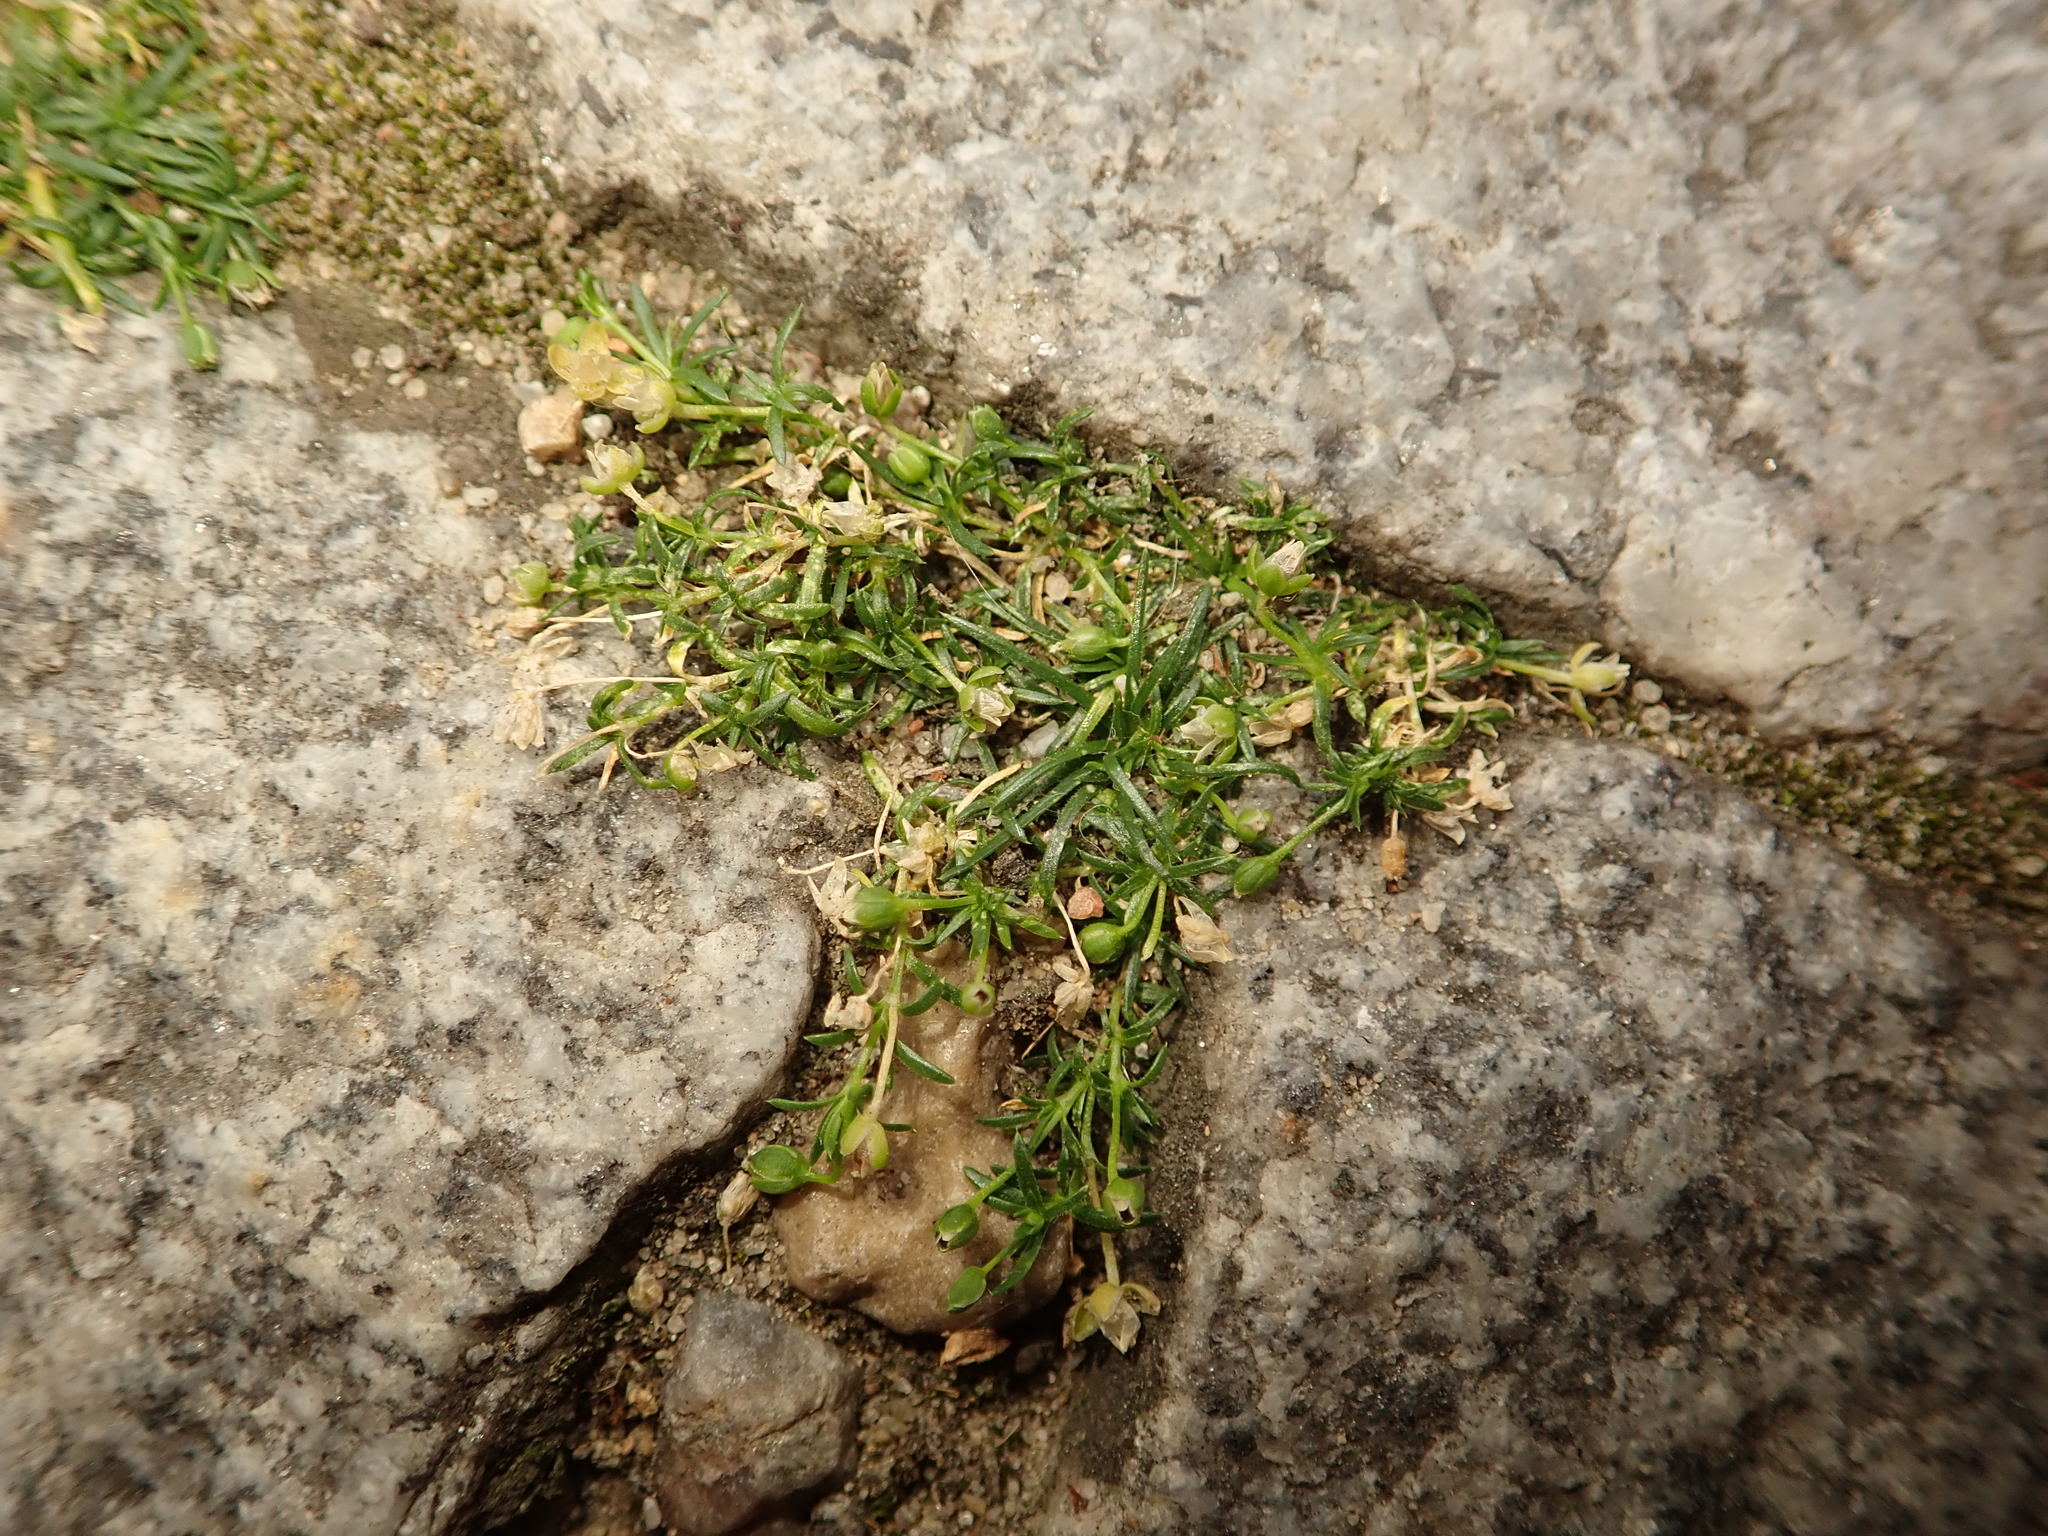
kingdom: Plantae
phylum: Tracheophyta
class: Magnoliopsida
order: Caryophyllales
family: Caryophyllaceae
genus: Sagina
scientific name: Sagina procumbens
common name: Procumbent pearlwort
